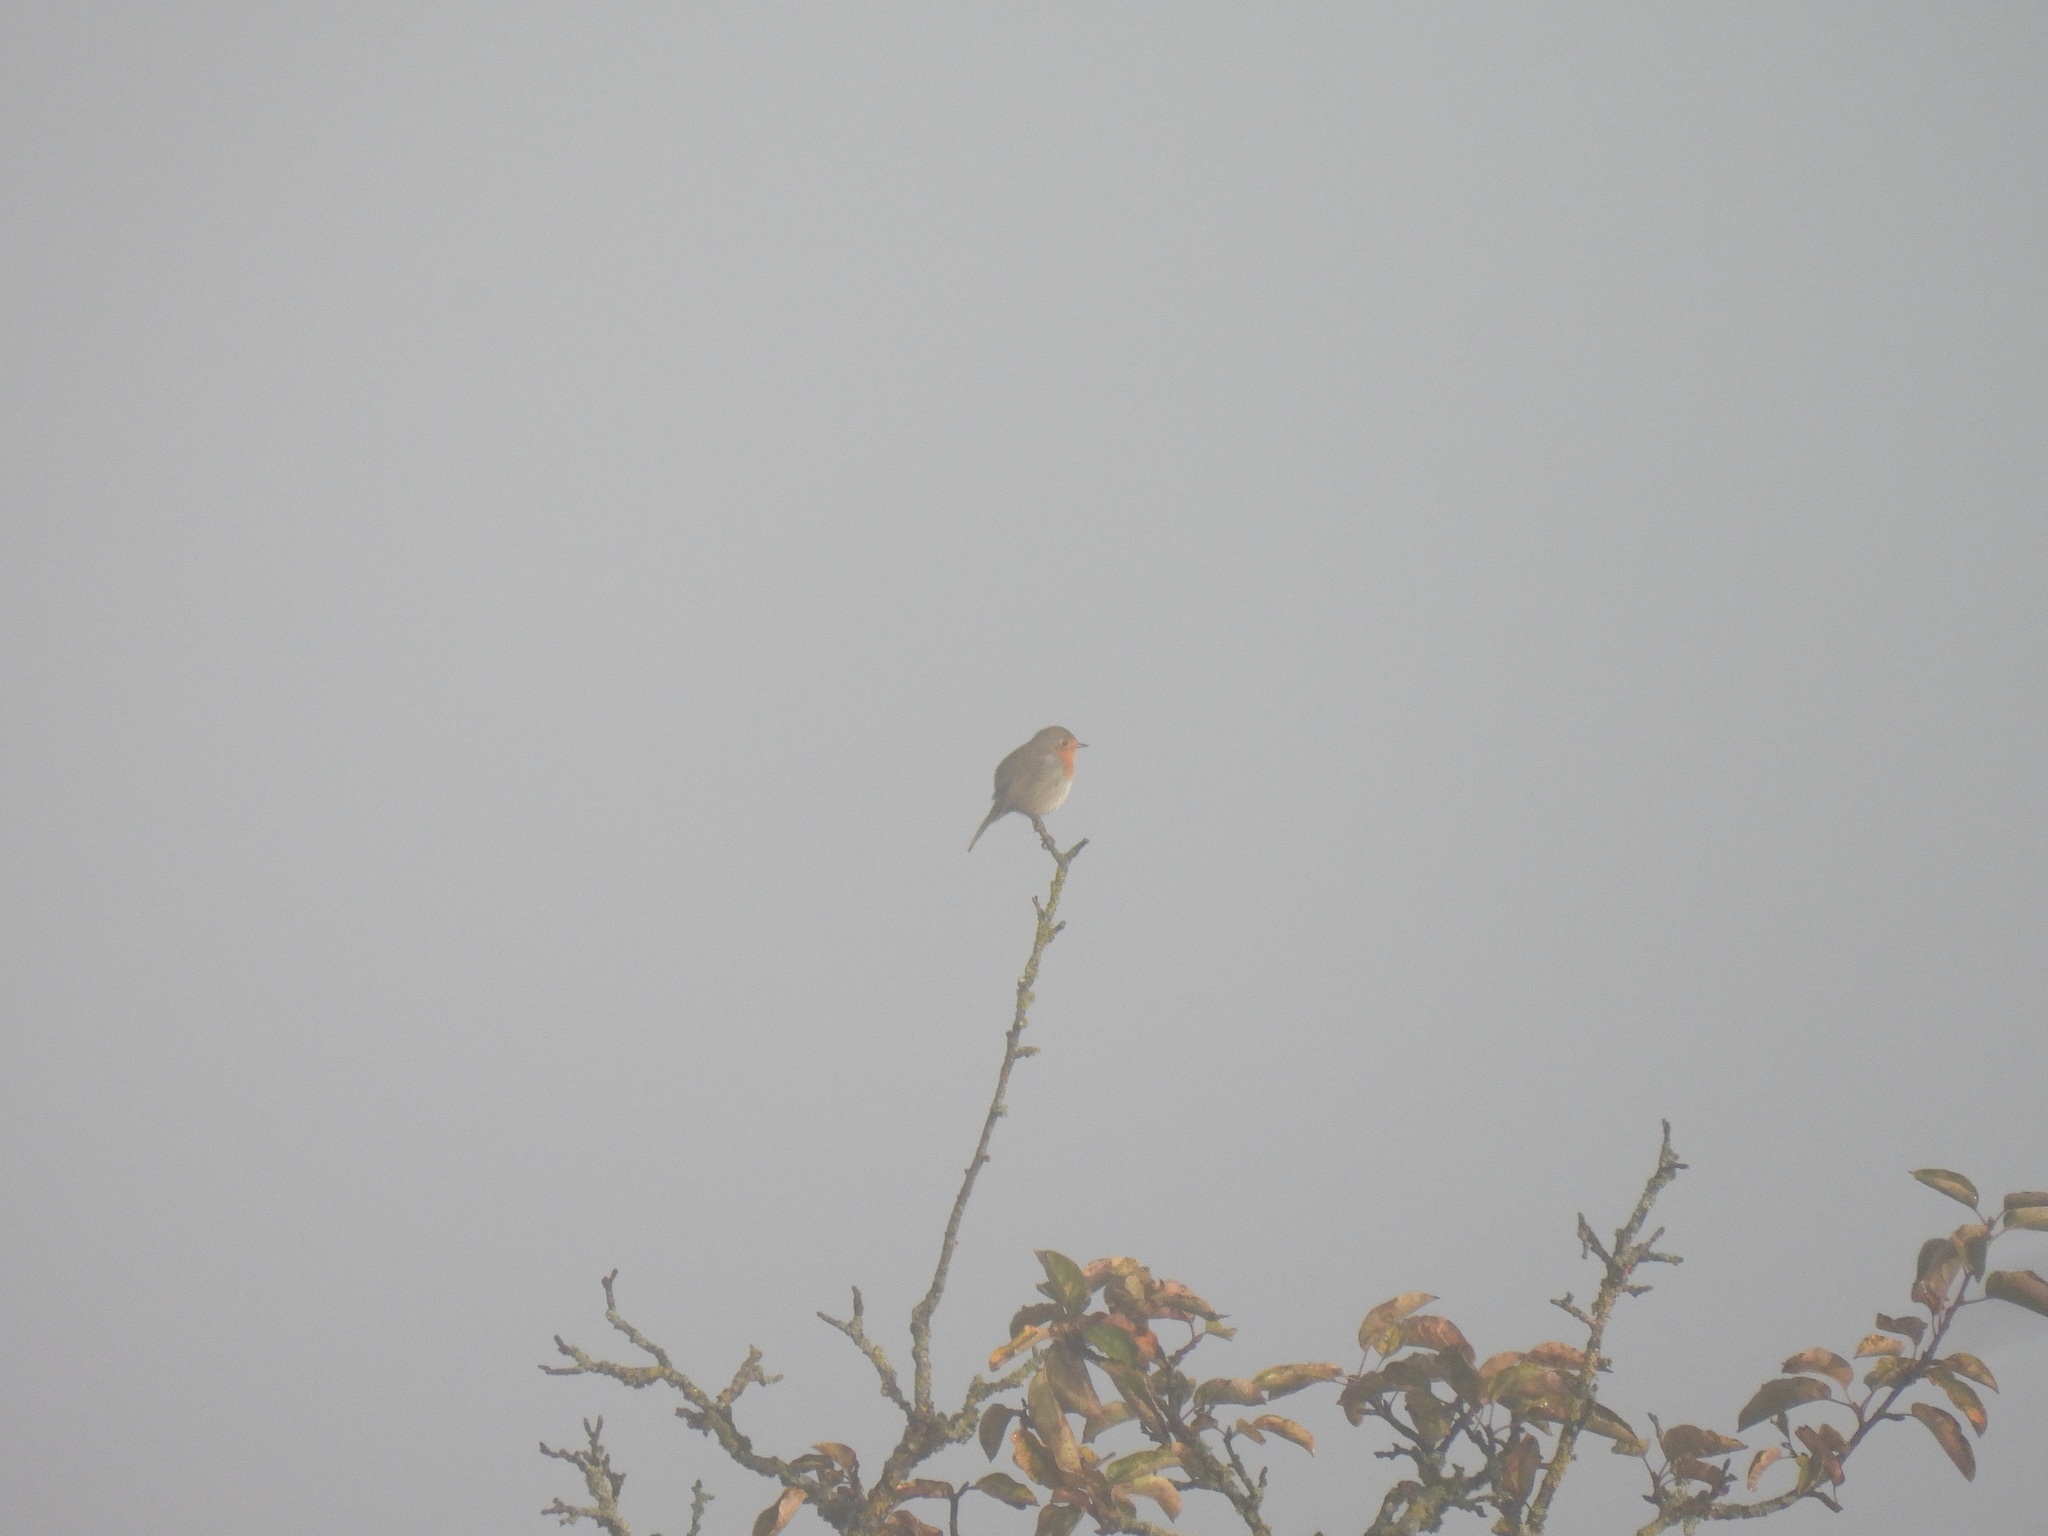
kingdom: Animalia
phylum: Chordata
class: Aves
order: Passeriformes
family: Muscicapidae
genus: Erithacus
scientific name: Erithacus rubecula
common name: European robin
